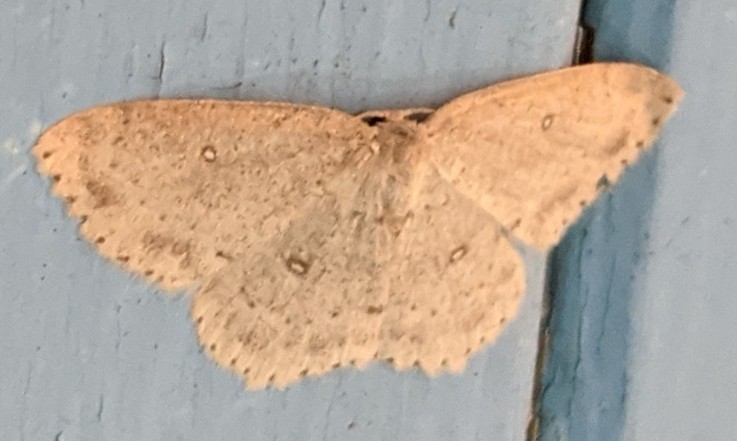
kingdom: Animalia
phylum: Arthropoda
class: Insecta
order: Lepidoptera
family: Geometridae
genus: Cyclophora
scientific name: Cyclophora pendulinaria
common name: Sweet fern geometer
